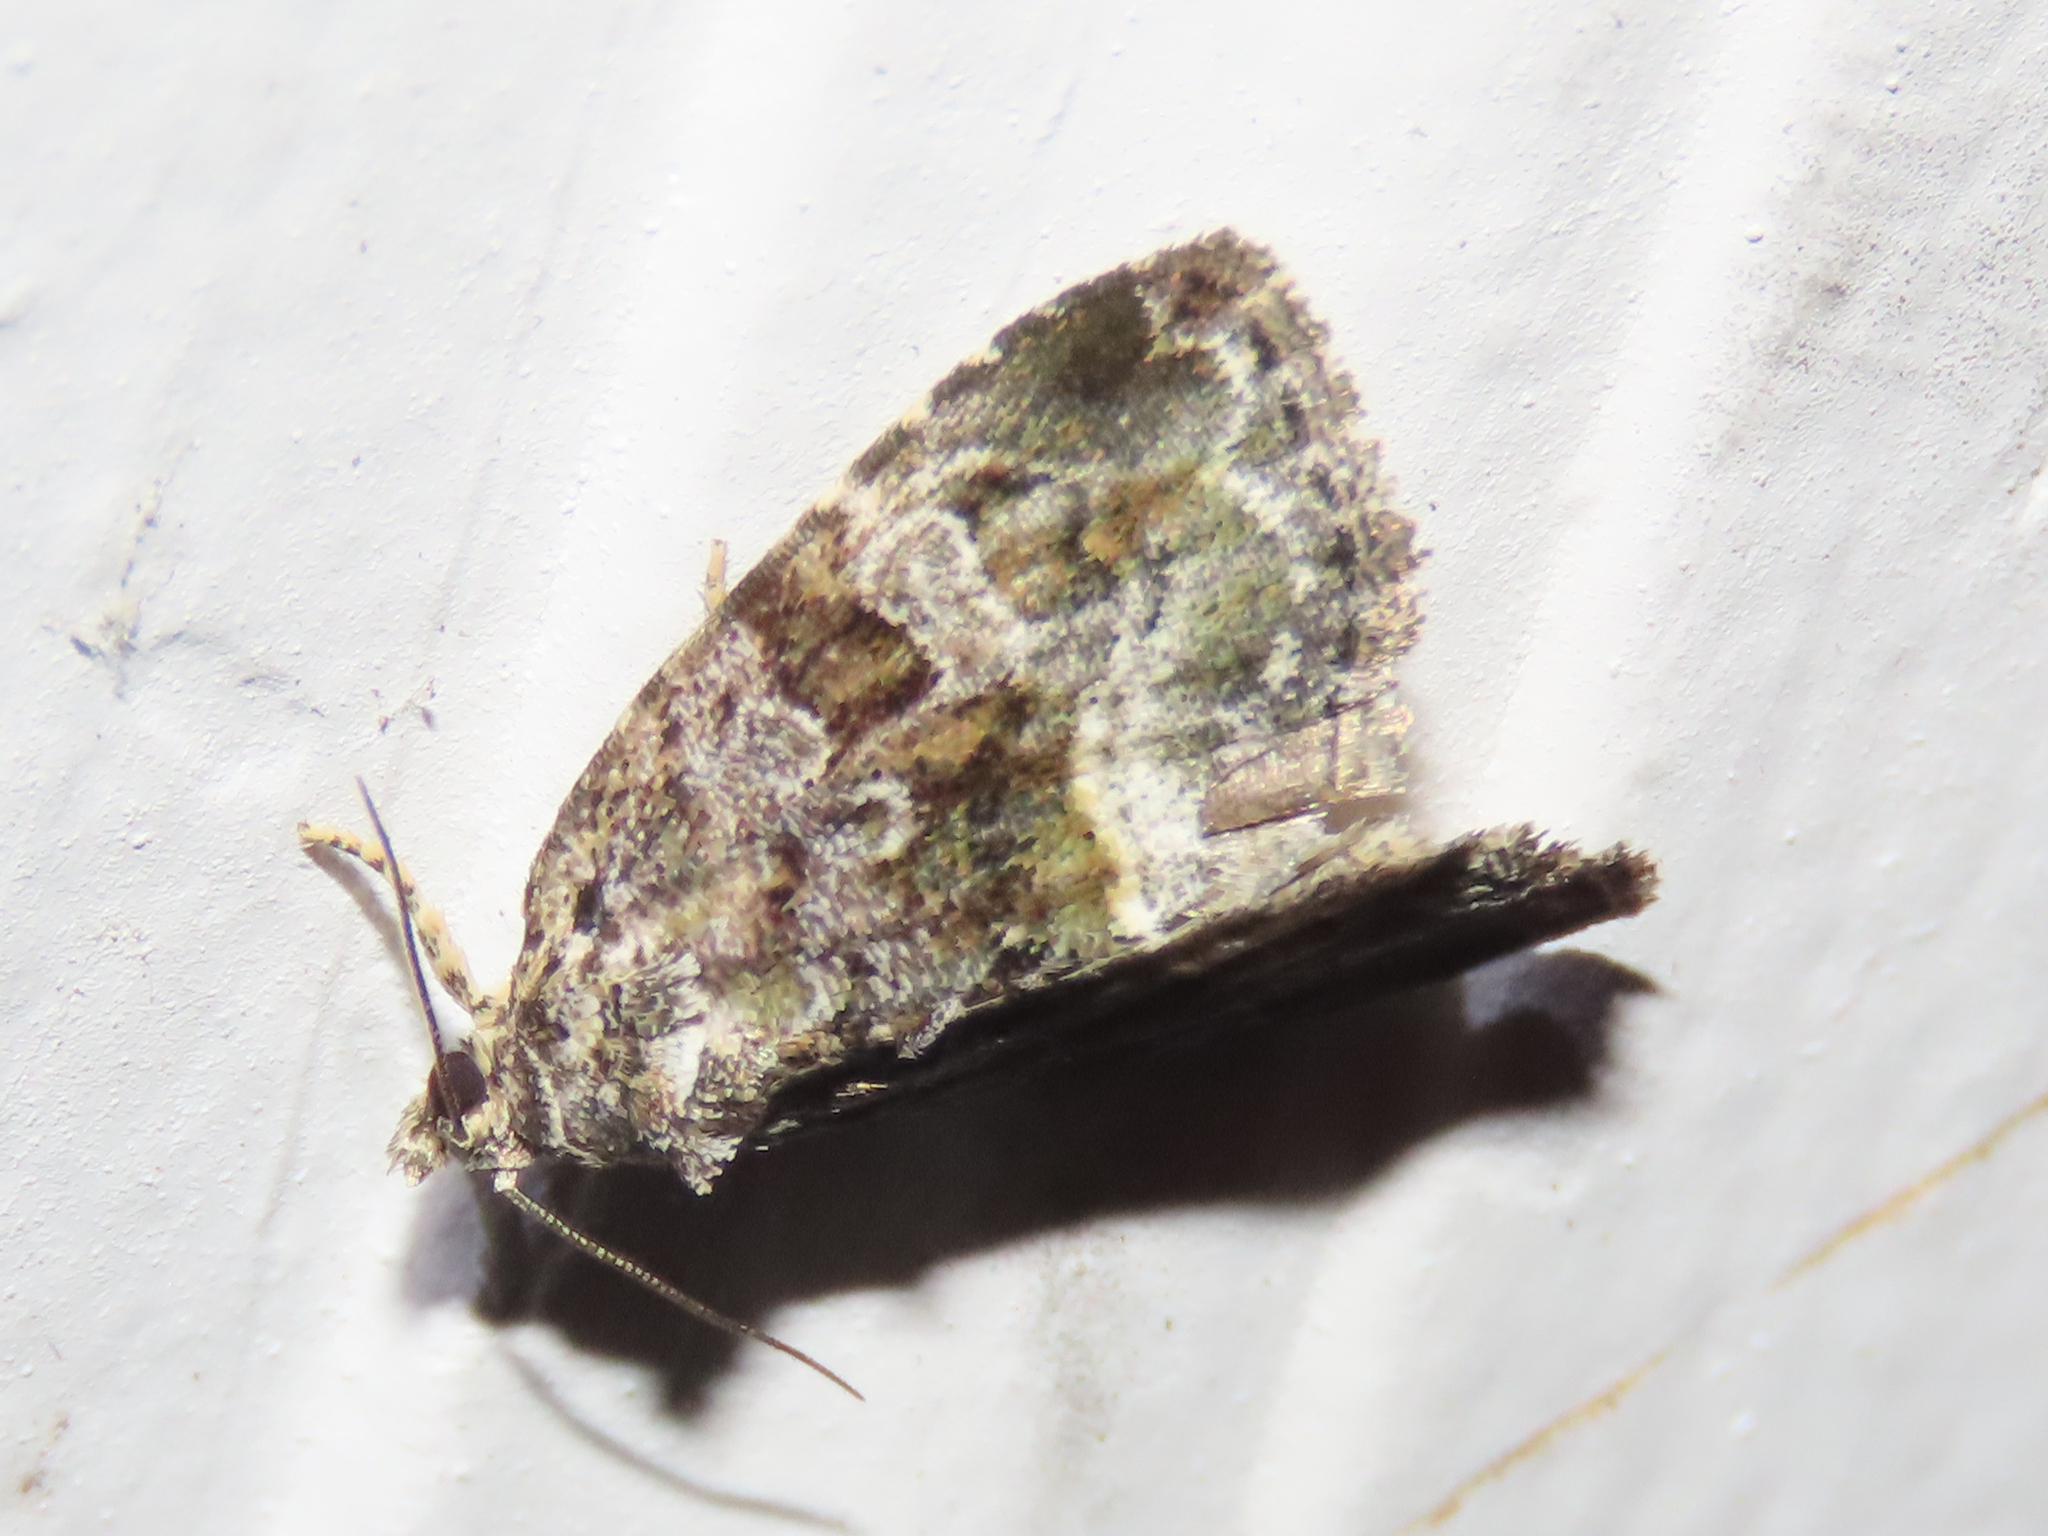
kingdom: Animalia
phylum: Arthropoda
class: Insecta
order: Lepidoptera
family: Noctuidae
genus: Protodeltote
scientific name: Protodeltote muscosula
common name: Large mossy glyph
